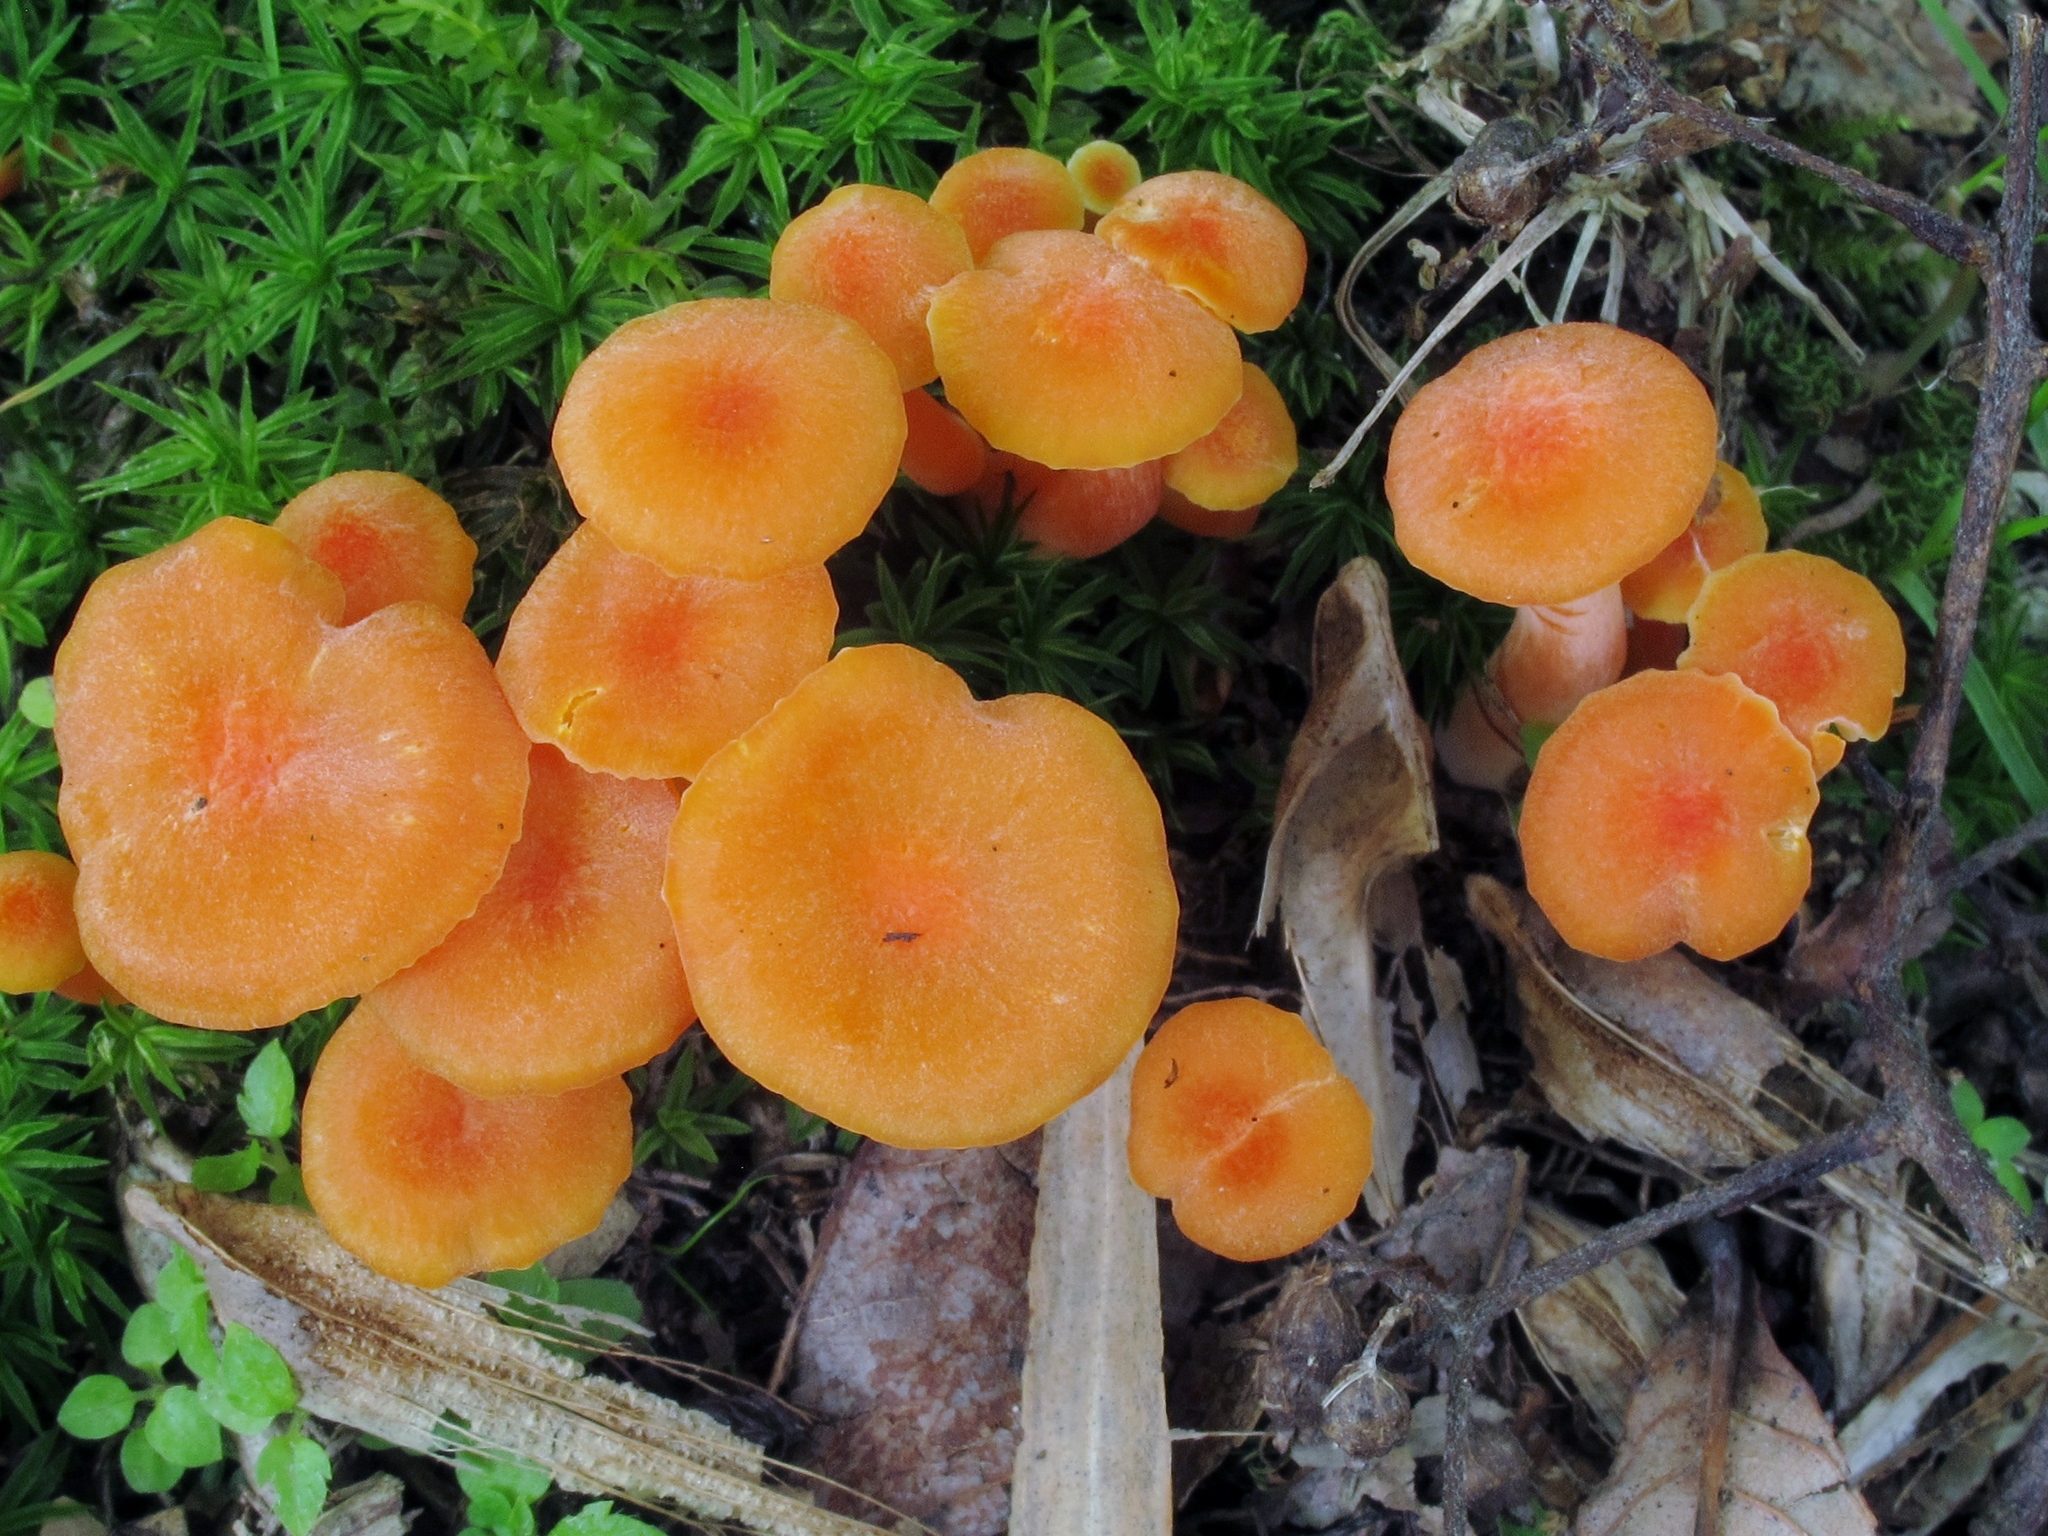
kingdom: Fungi
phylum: Basidiomycota
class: Agaricomycetes
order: Agaricales
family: Hygrophoraceae
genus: Hygrocybe
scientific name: Hygrocybe miniata
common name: Vermilion waxcap
